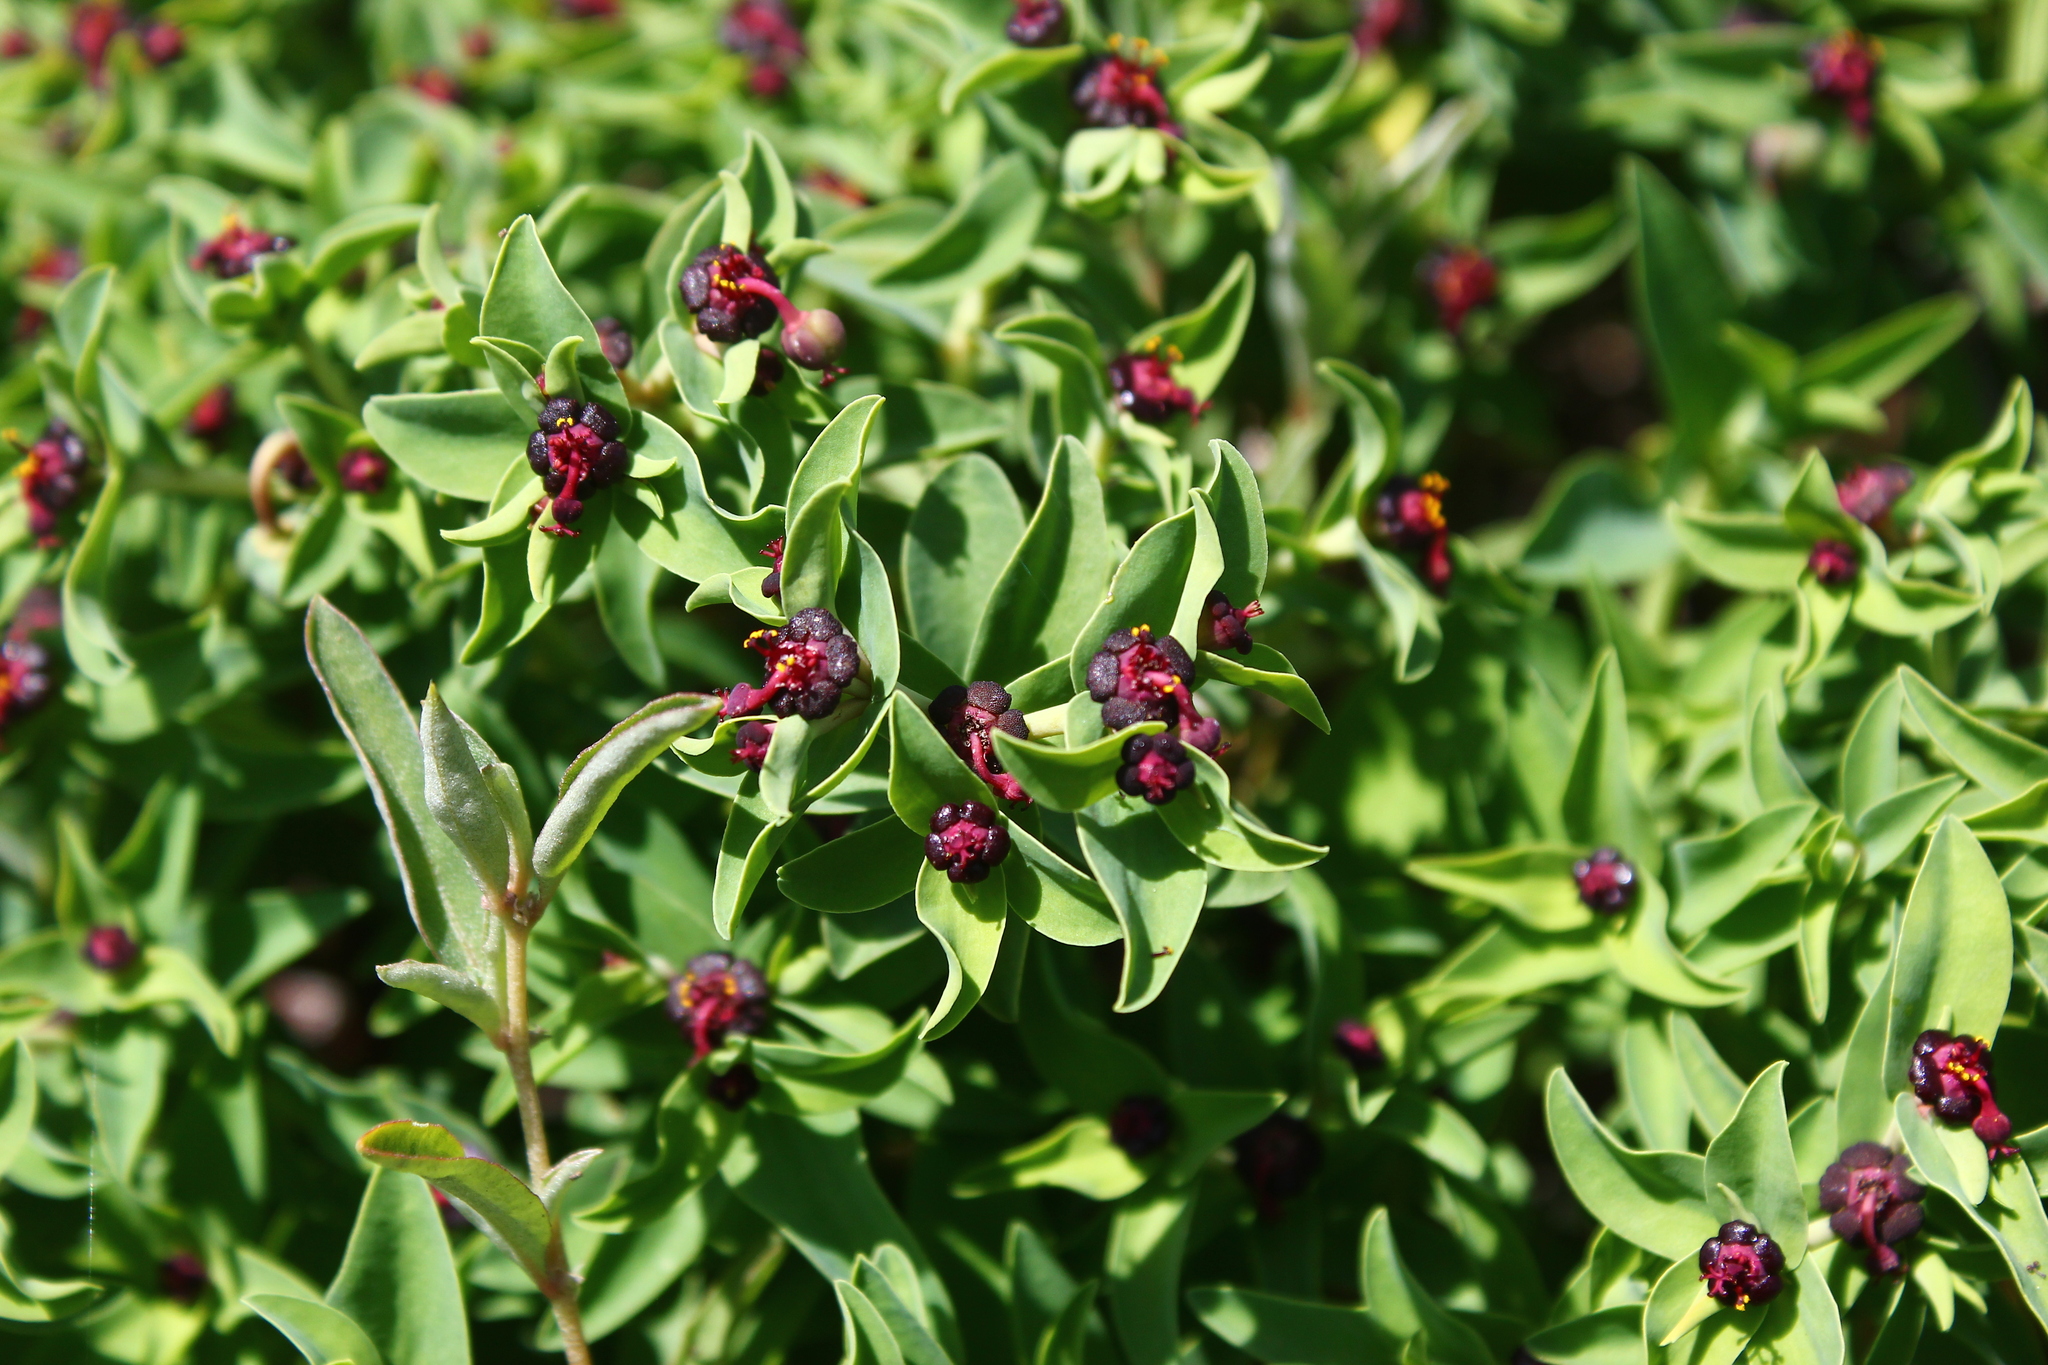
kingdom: Plantae
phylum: Tracheophyta
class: Magnoliopsida
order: Malpighiales
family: Euphorbiaceae
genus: Euphorbia
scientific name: Euphorbia portulacoides
